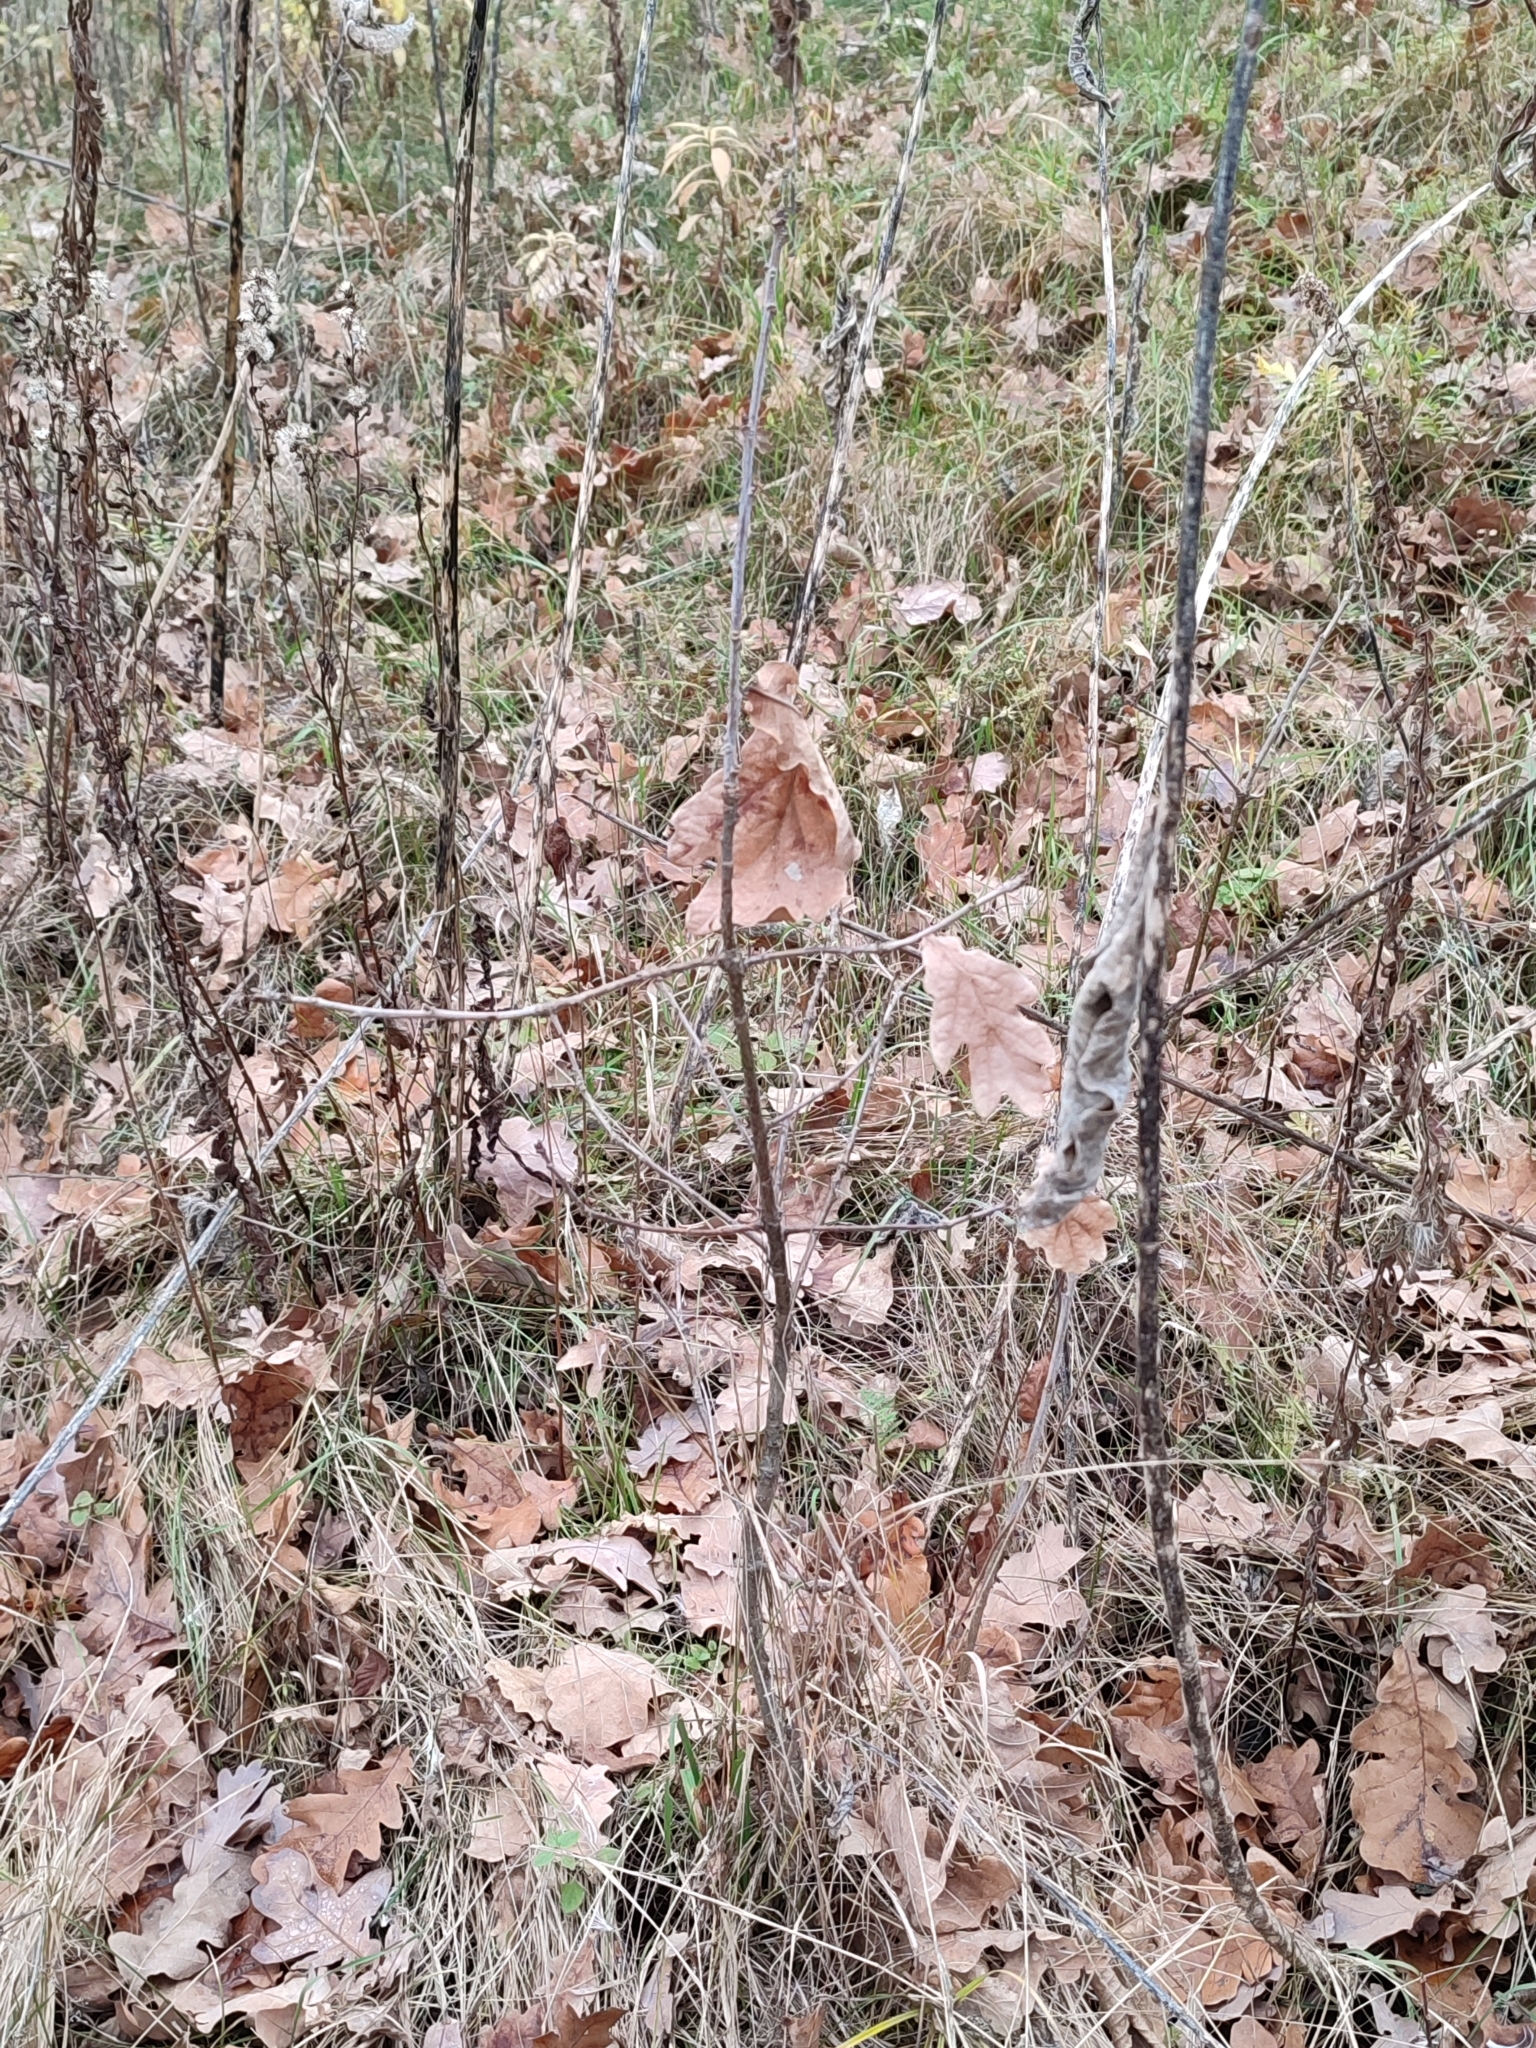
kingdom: Plantae
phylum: Tracheophyta
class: Magnoliopsida
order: Fagales
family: Fagaceae
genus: Quercus
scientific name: Quercus robur
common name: Pedunculate oak
